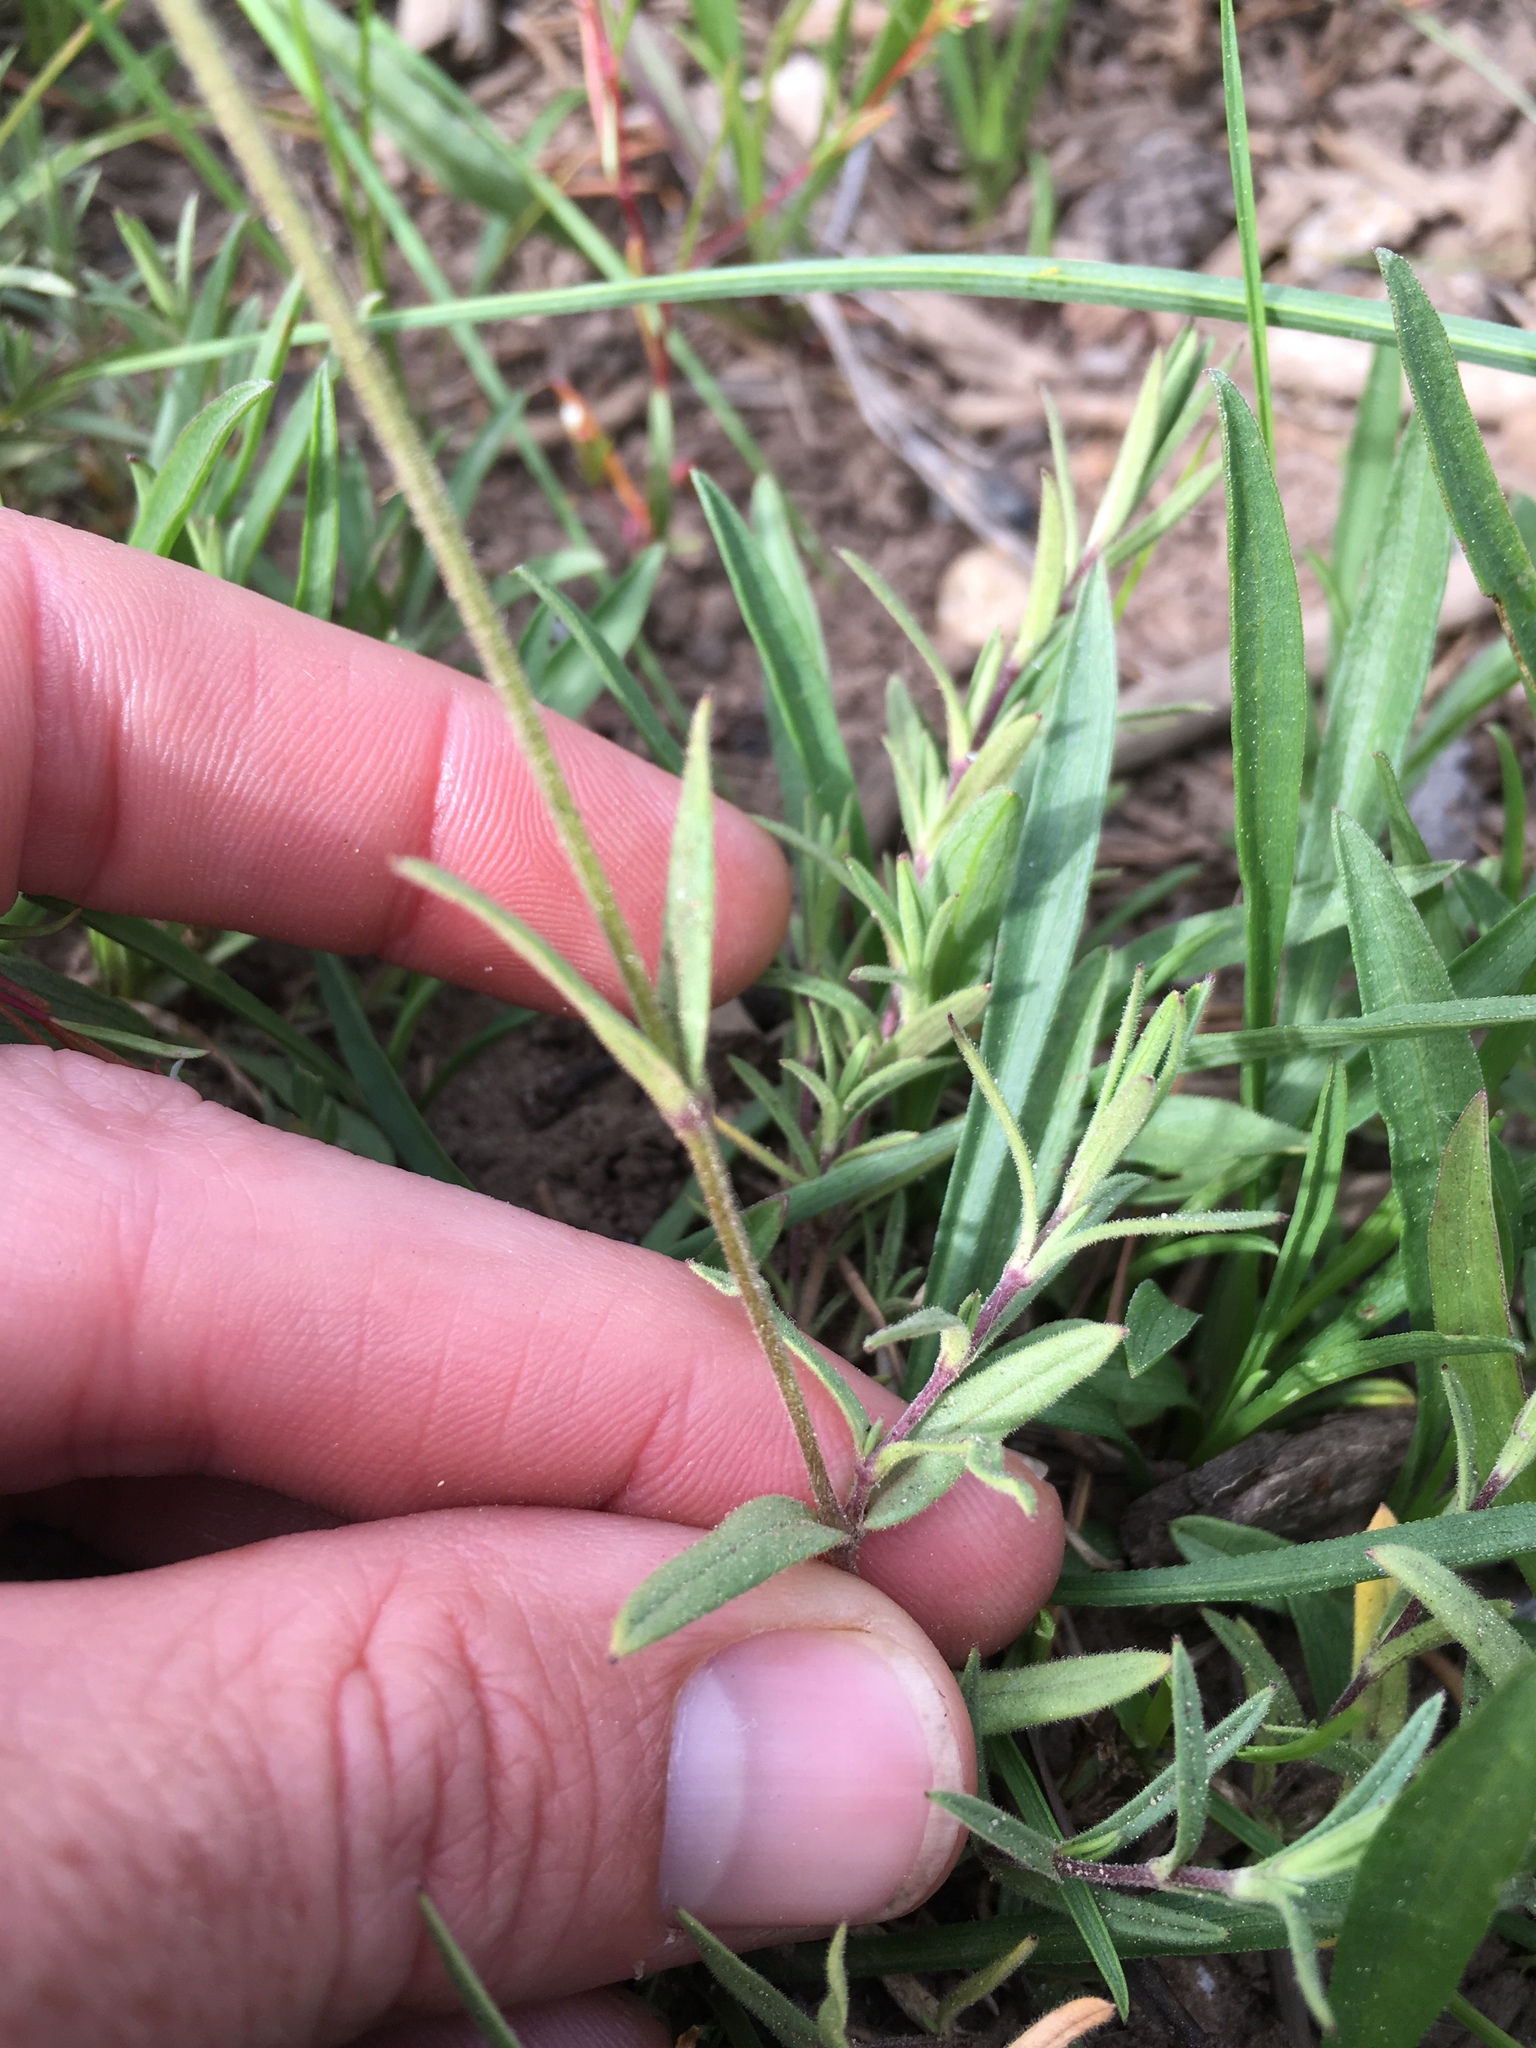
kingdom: Plantae
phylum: Tracheophyta
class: Magnoliopsida
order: Caryophyllales
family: Caryophyllaceae
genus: Cerastium
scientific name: Cerastium arvense
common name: Field mouse-ear
